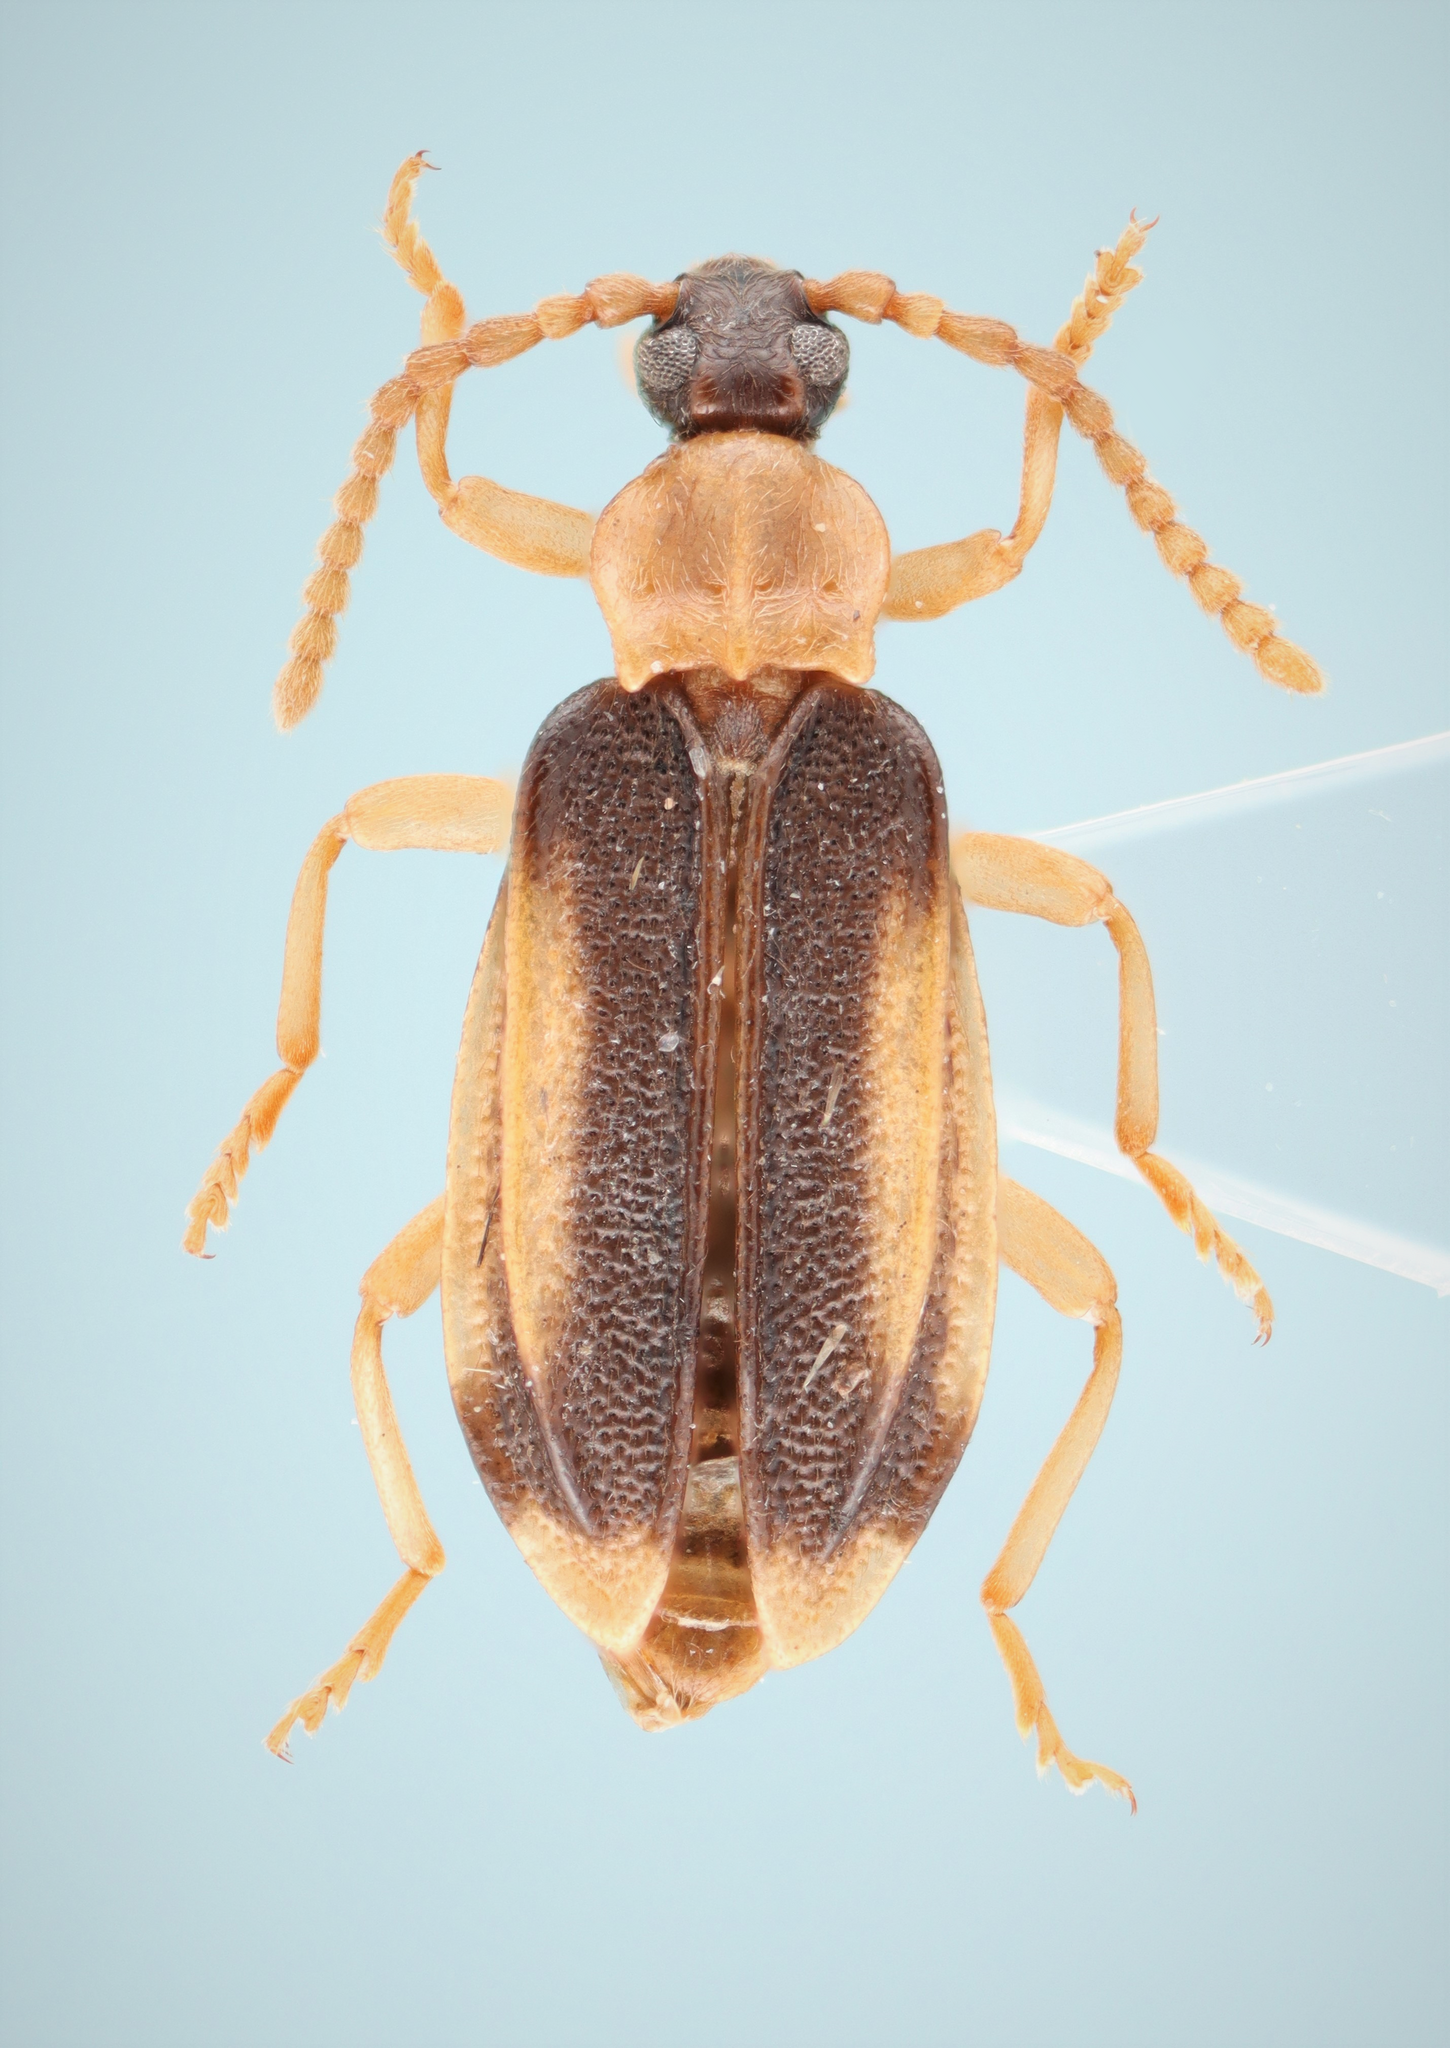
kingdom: Animalia
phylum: Arthropoda
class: Insecta
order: Coleoptera
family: Anthicidae
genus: Ischalia
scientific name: Ischalia costata
